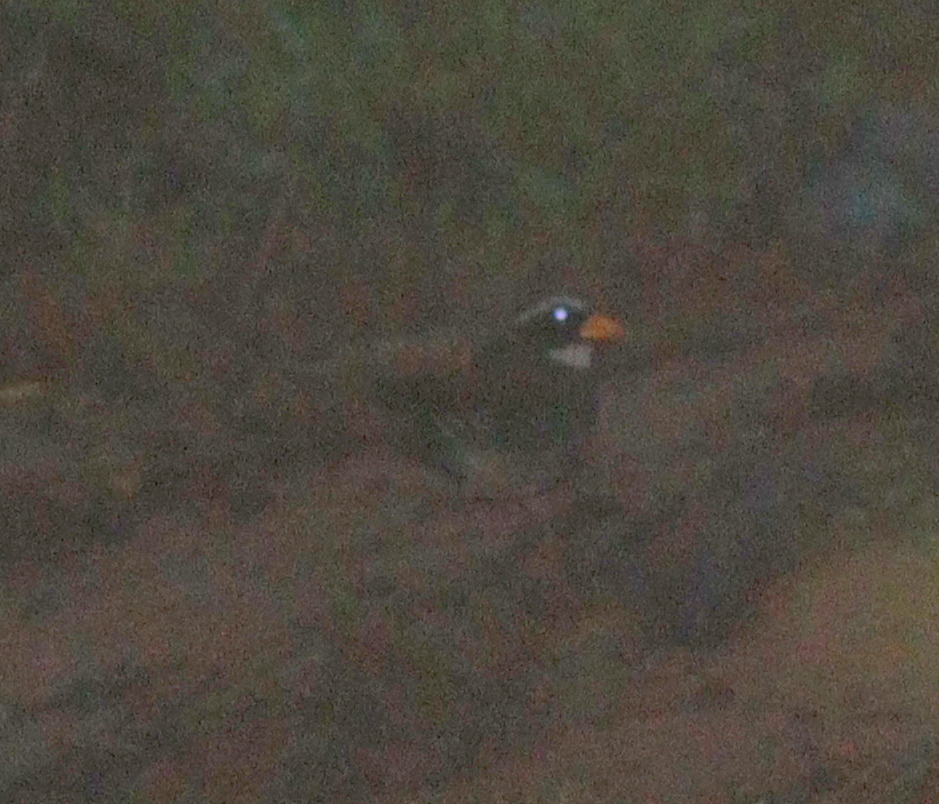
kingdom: Animalia
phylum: Chordata
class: Aves
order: Passeriformes
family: Passerellidae
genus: Arremon
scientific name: Arremon aurantiirostris
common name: Orange-billed sparrow
